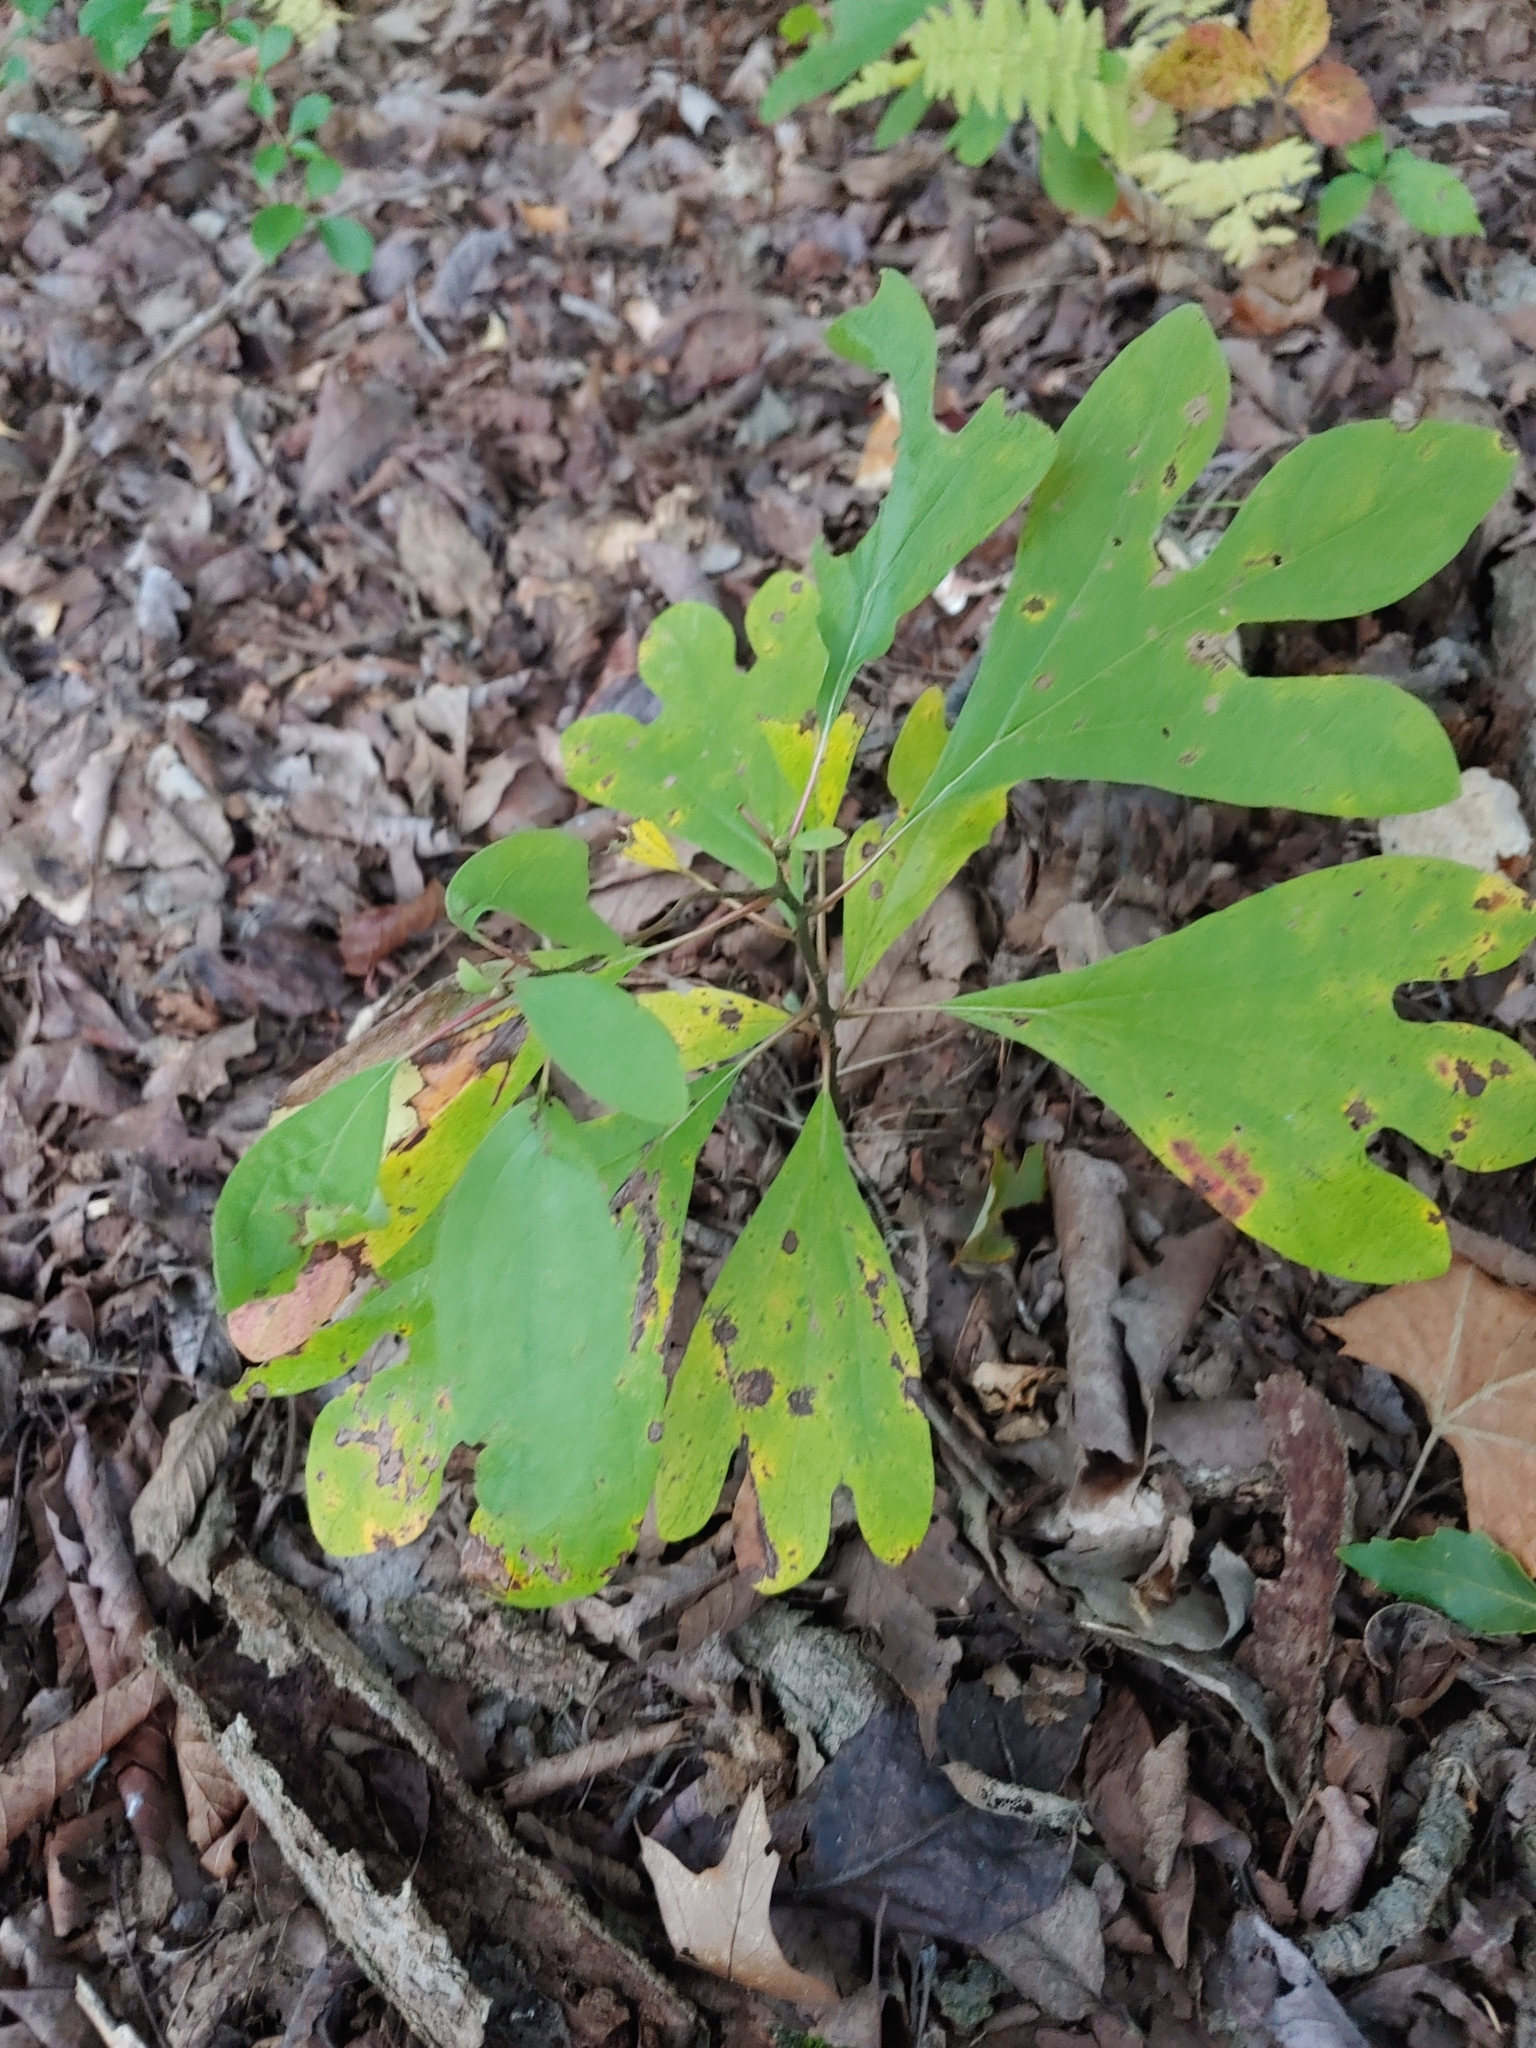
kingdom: Plantae
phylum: Tracheophyta
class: Magnoliopsida
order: Laurales
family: Lauraceae
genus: Sassafras
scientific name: Sassafras albidum
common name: Sassafras
